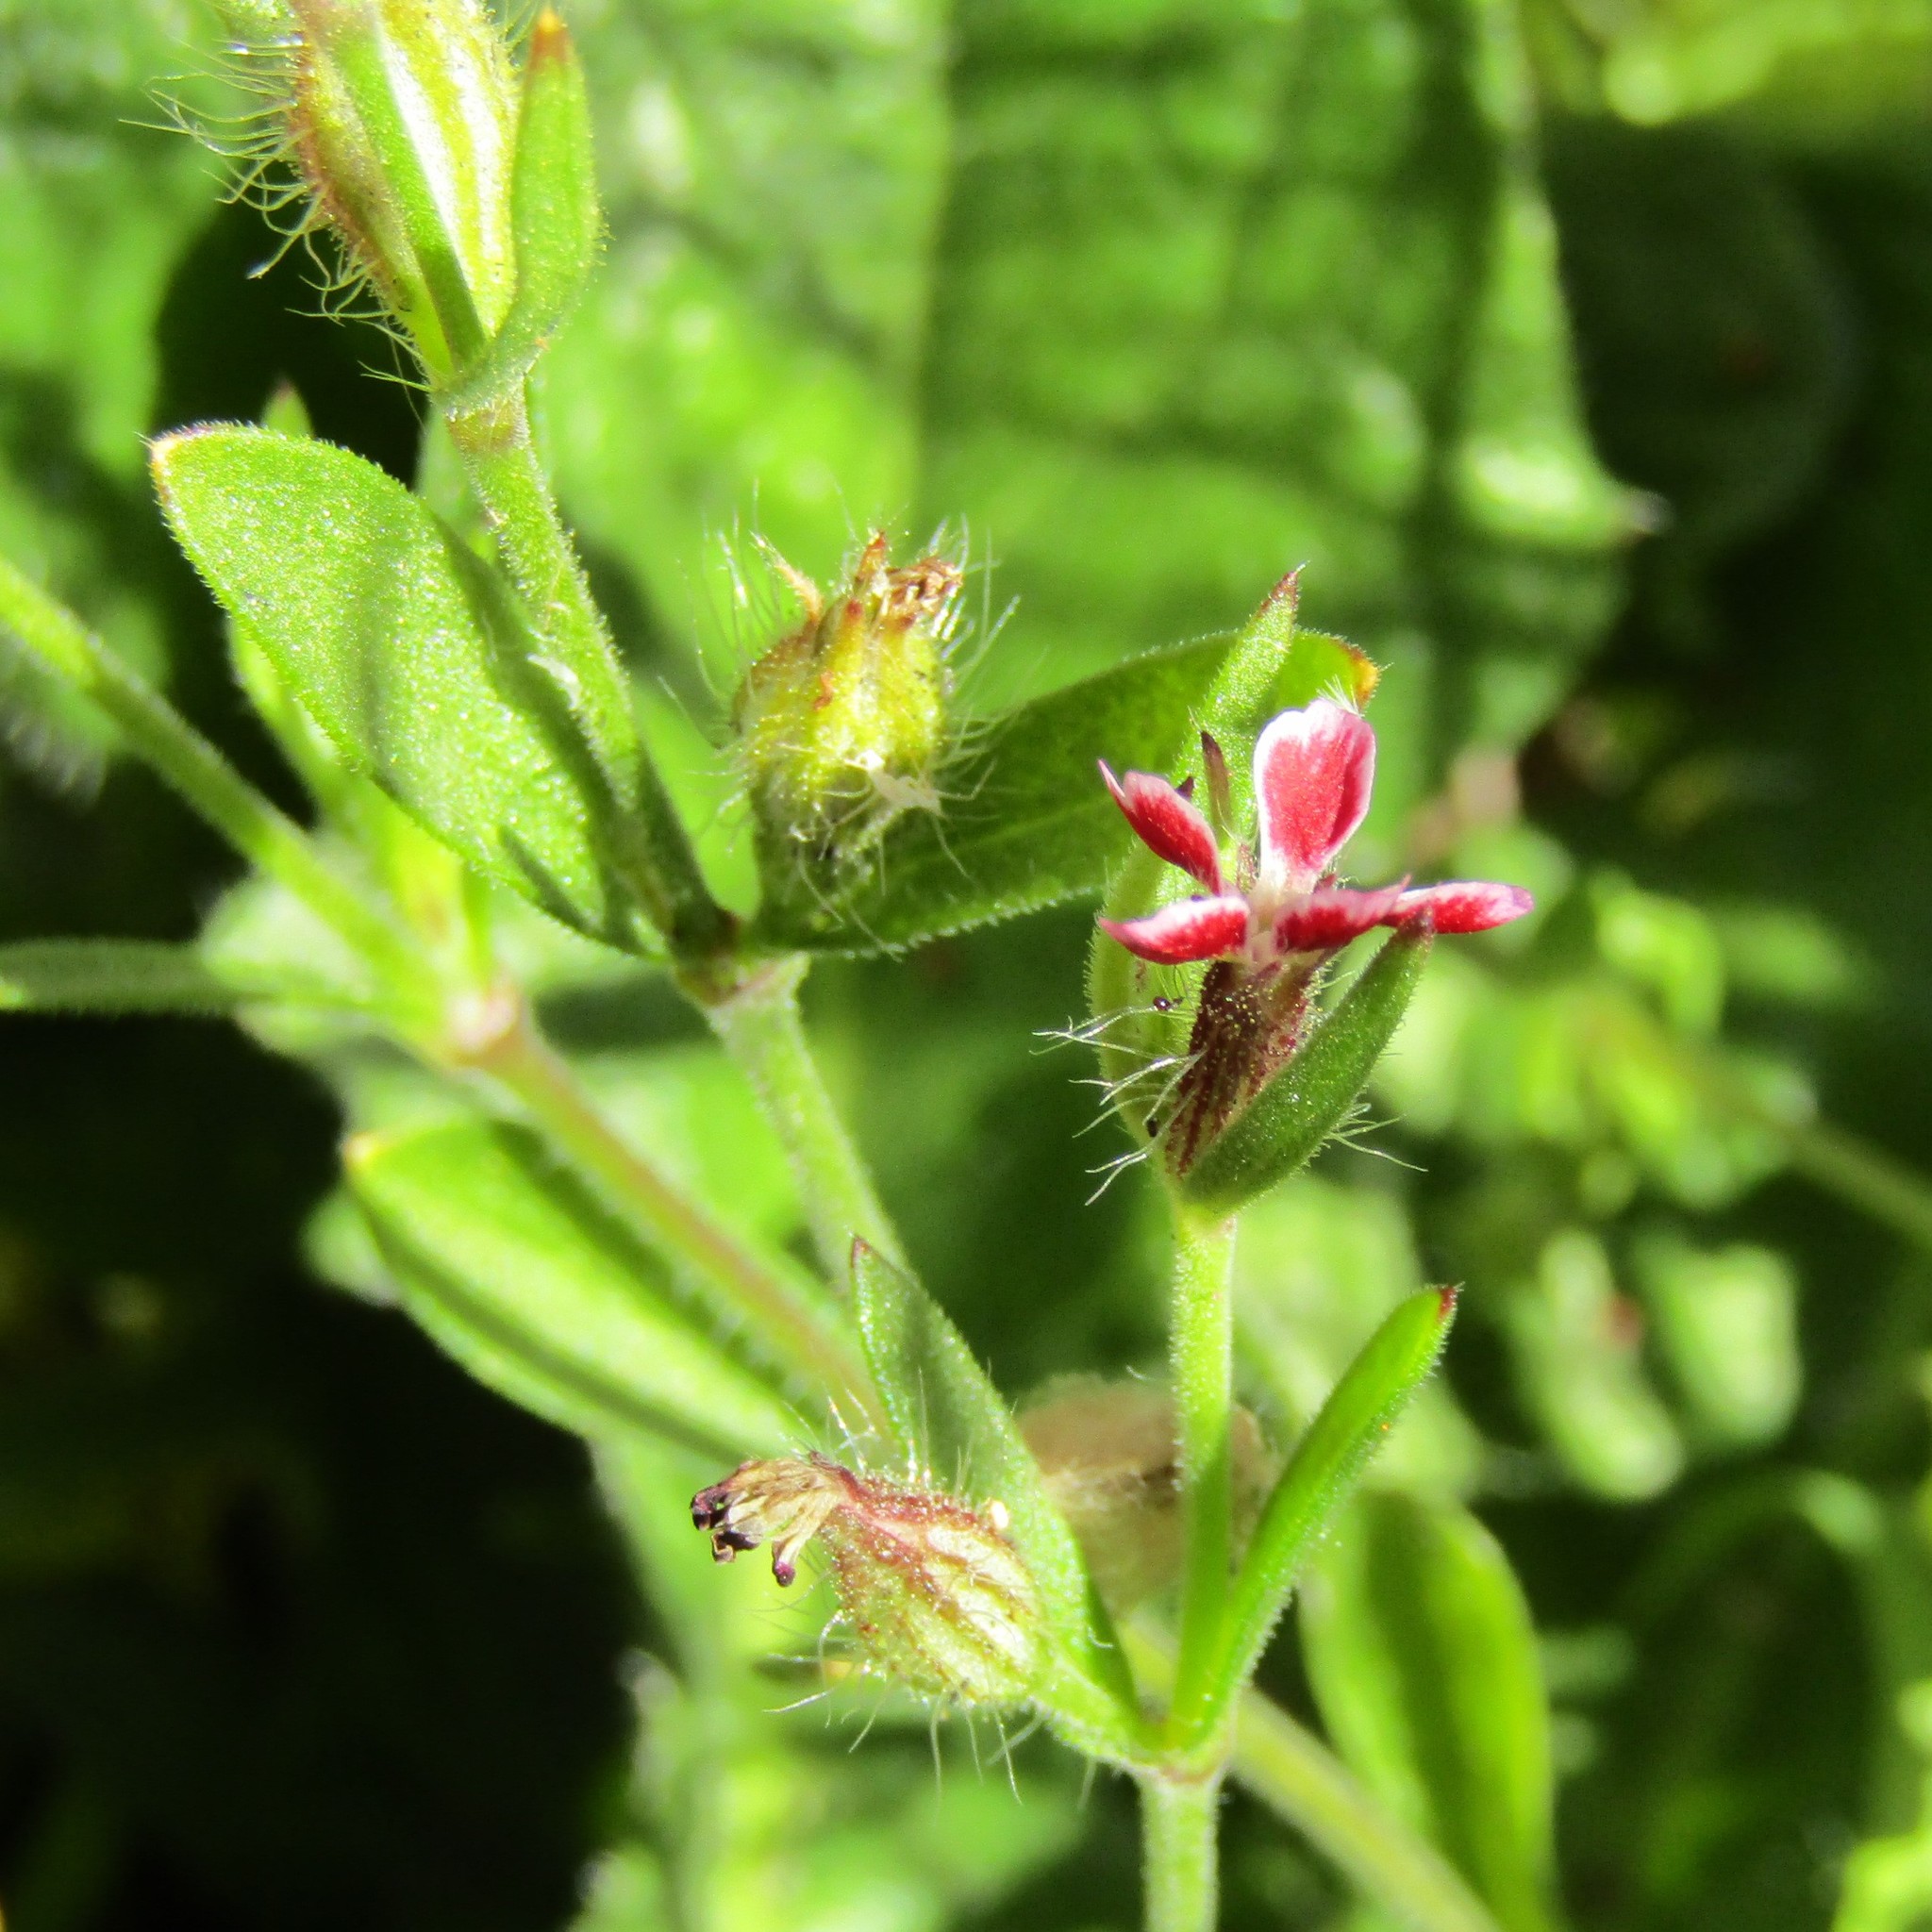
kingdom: Plantae
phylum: Tracheophyta
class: Magnoliopsida
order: Caryophyllales
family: Caryophyllaceae
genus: Silene
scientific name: Silene gallica
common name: Small-flowered catchfly
